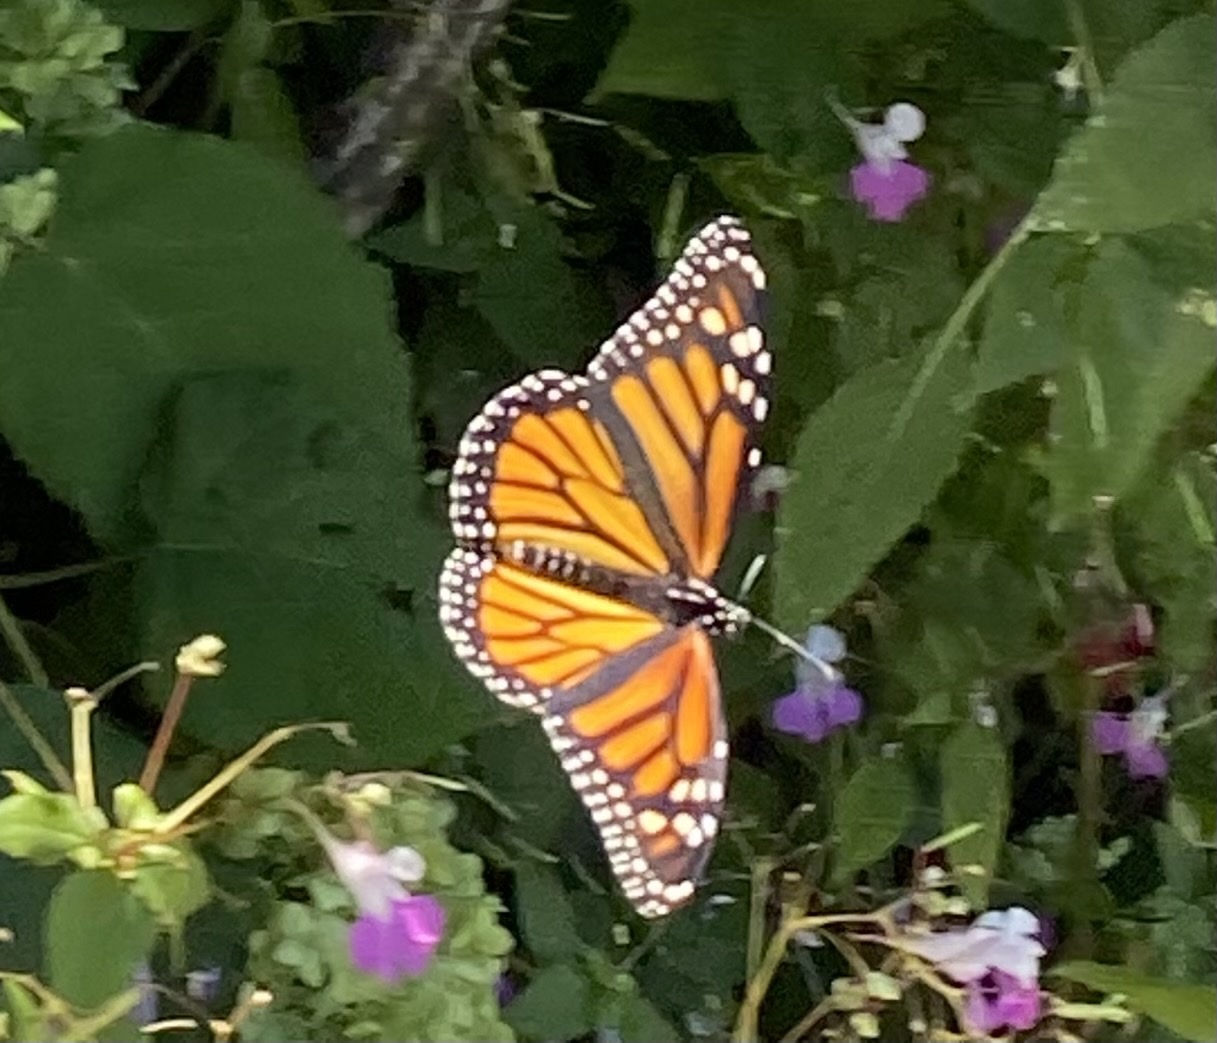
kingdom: Animalia
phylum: Arthropoda
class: Insecta
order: Lepidoptera
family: Nymphalidae
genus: Danaus
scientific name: Danaus plexippus
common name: Monarch
